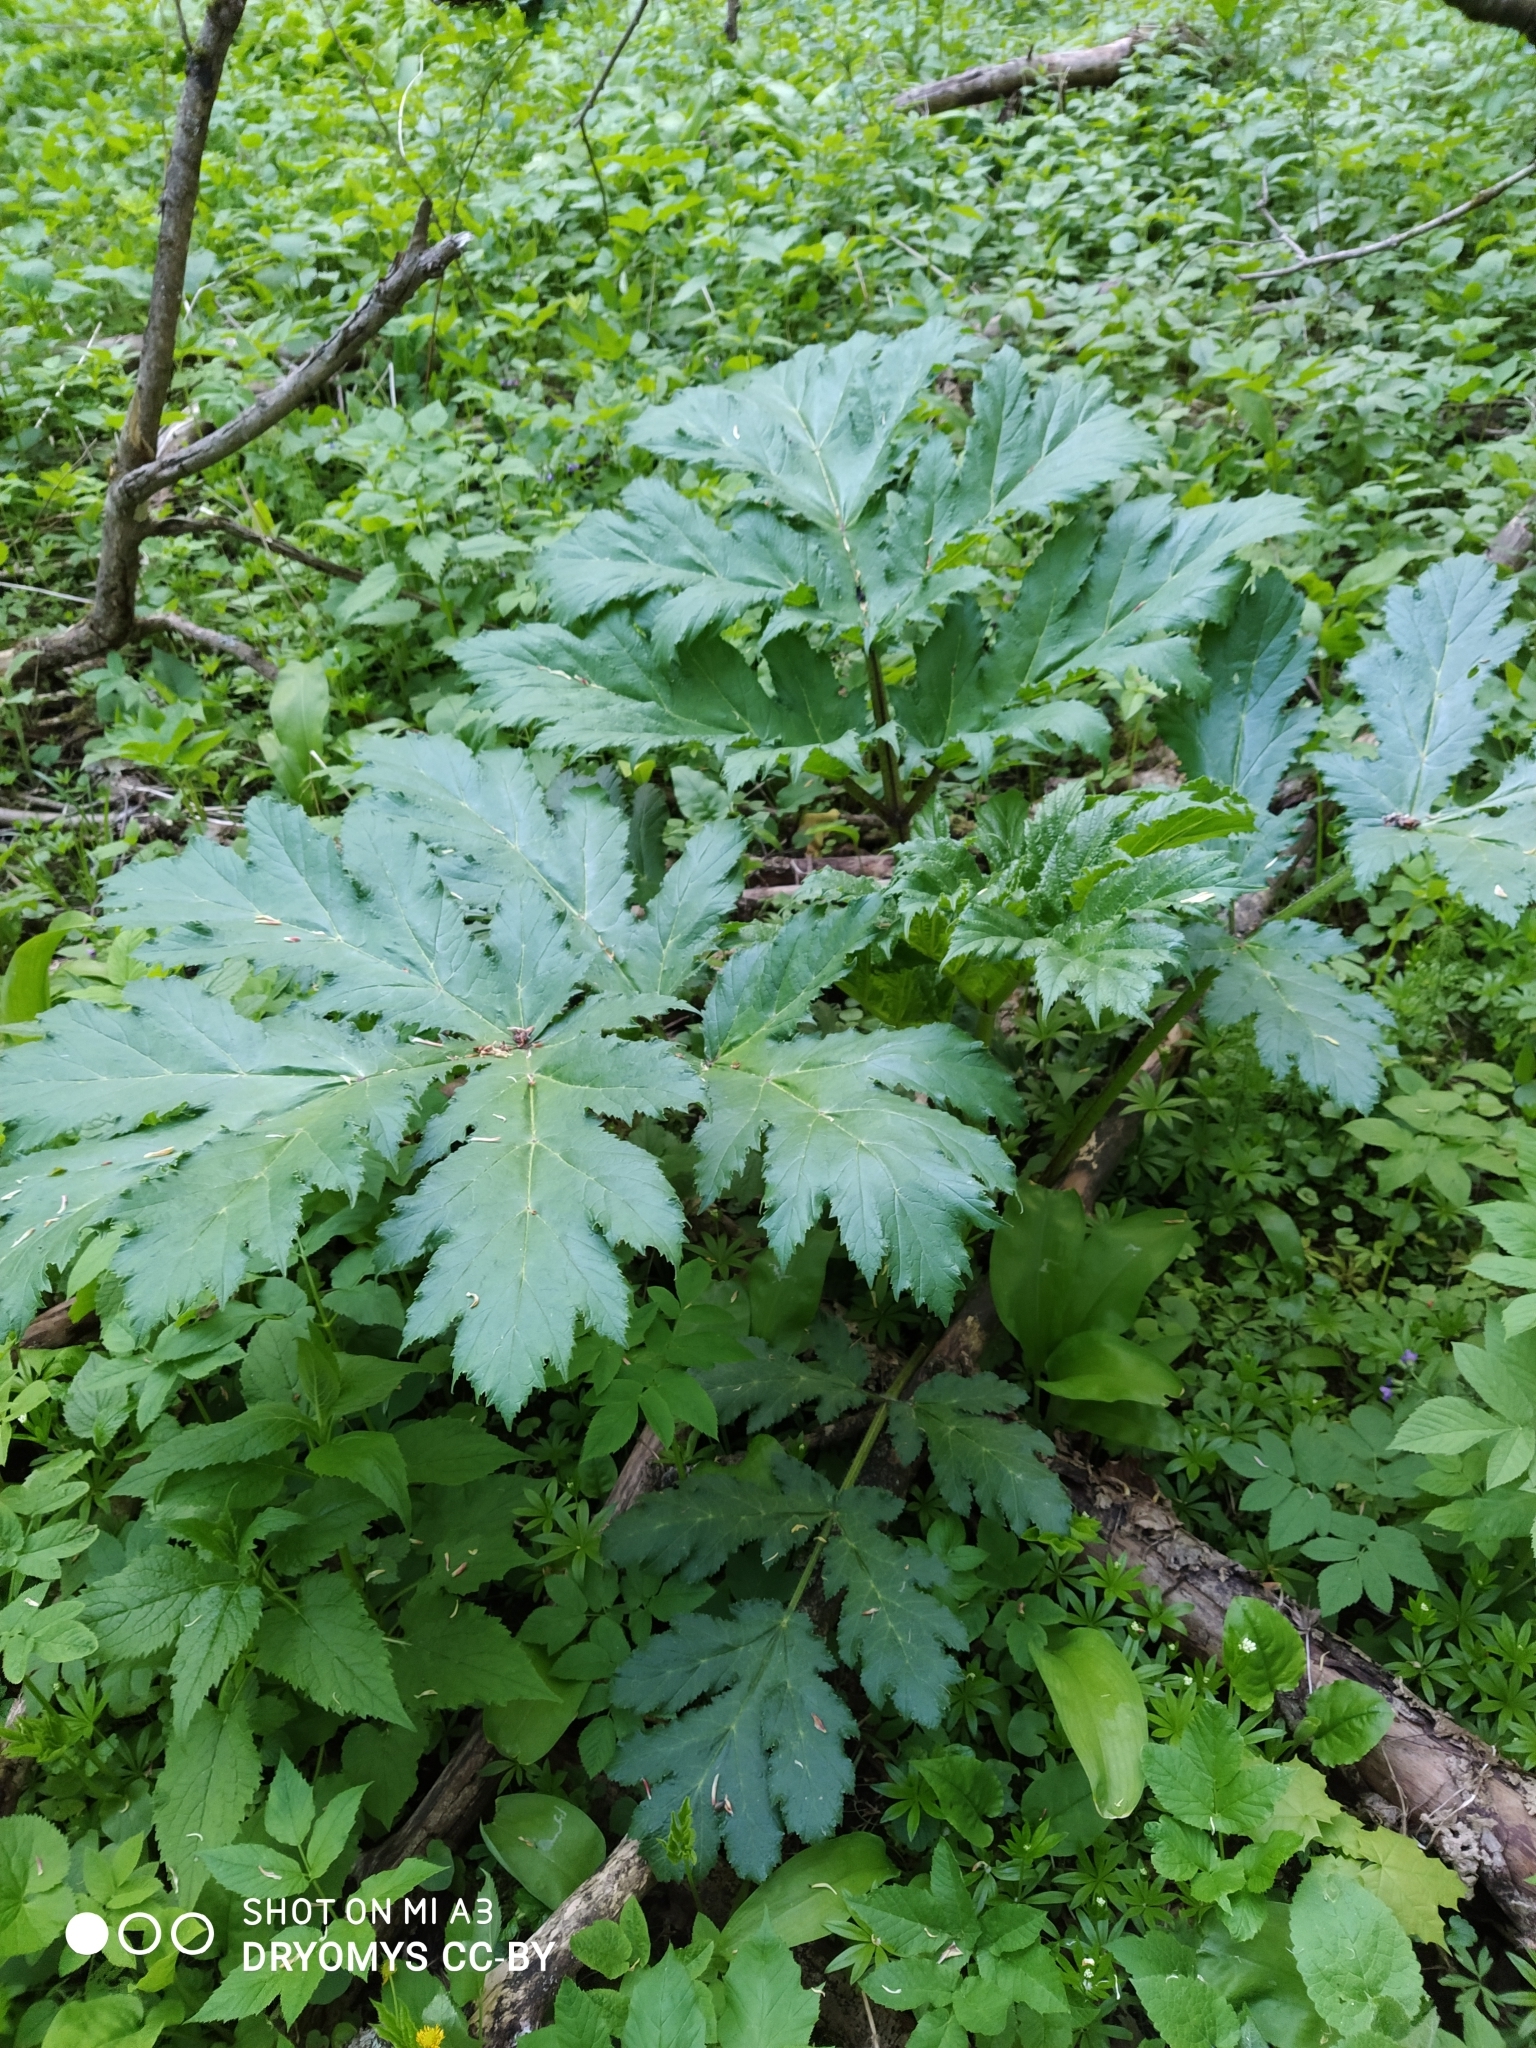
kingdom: Plantae
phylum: Tracheophyta
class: Magnoliopsida
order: Apiales
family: Apiaceae
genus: Heracleum
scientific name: Heracleum sosnowskyi
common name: Sosnowsky's hogweed
